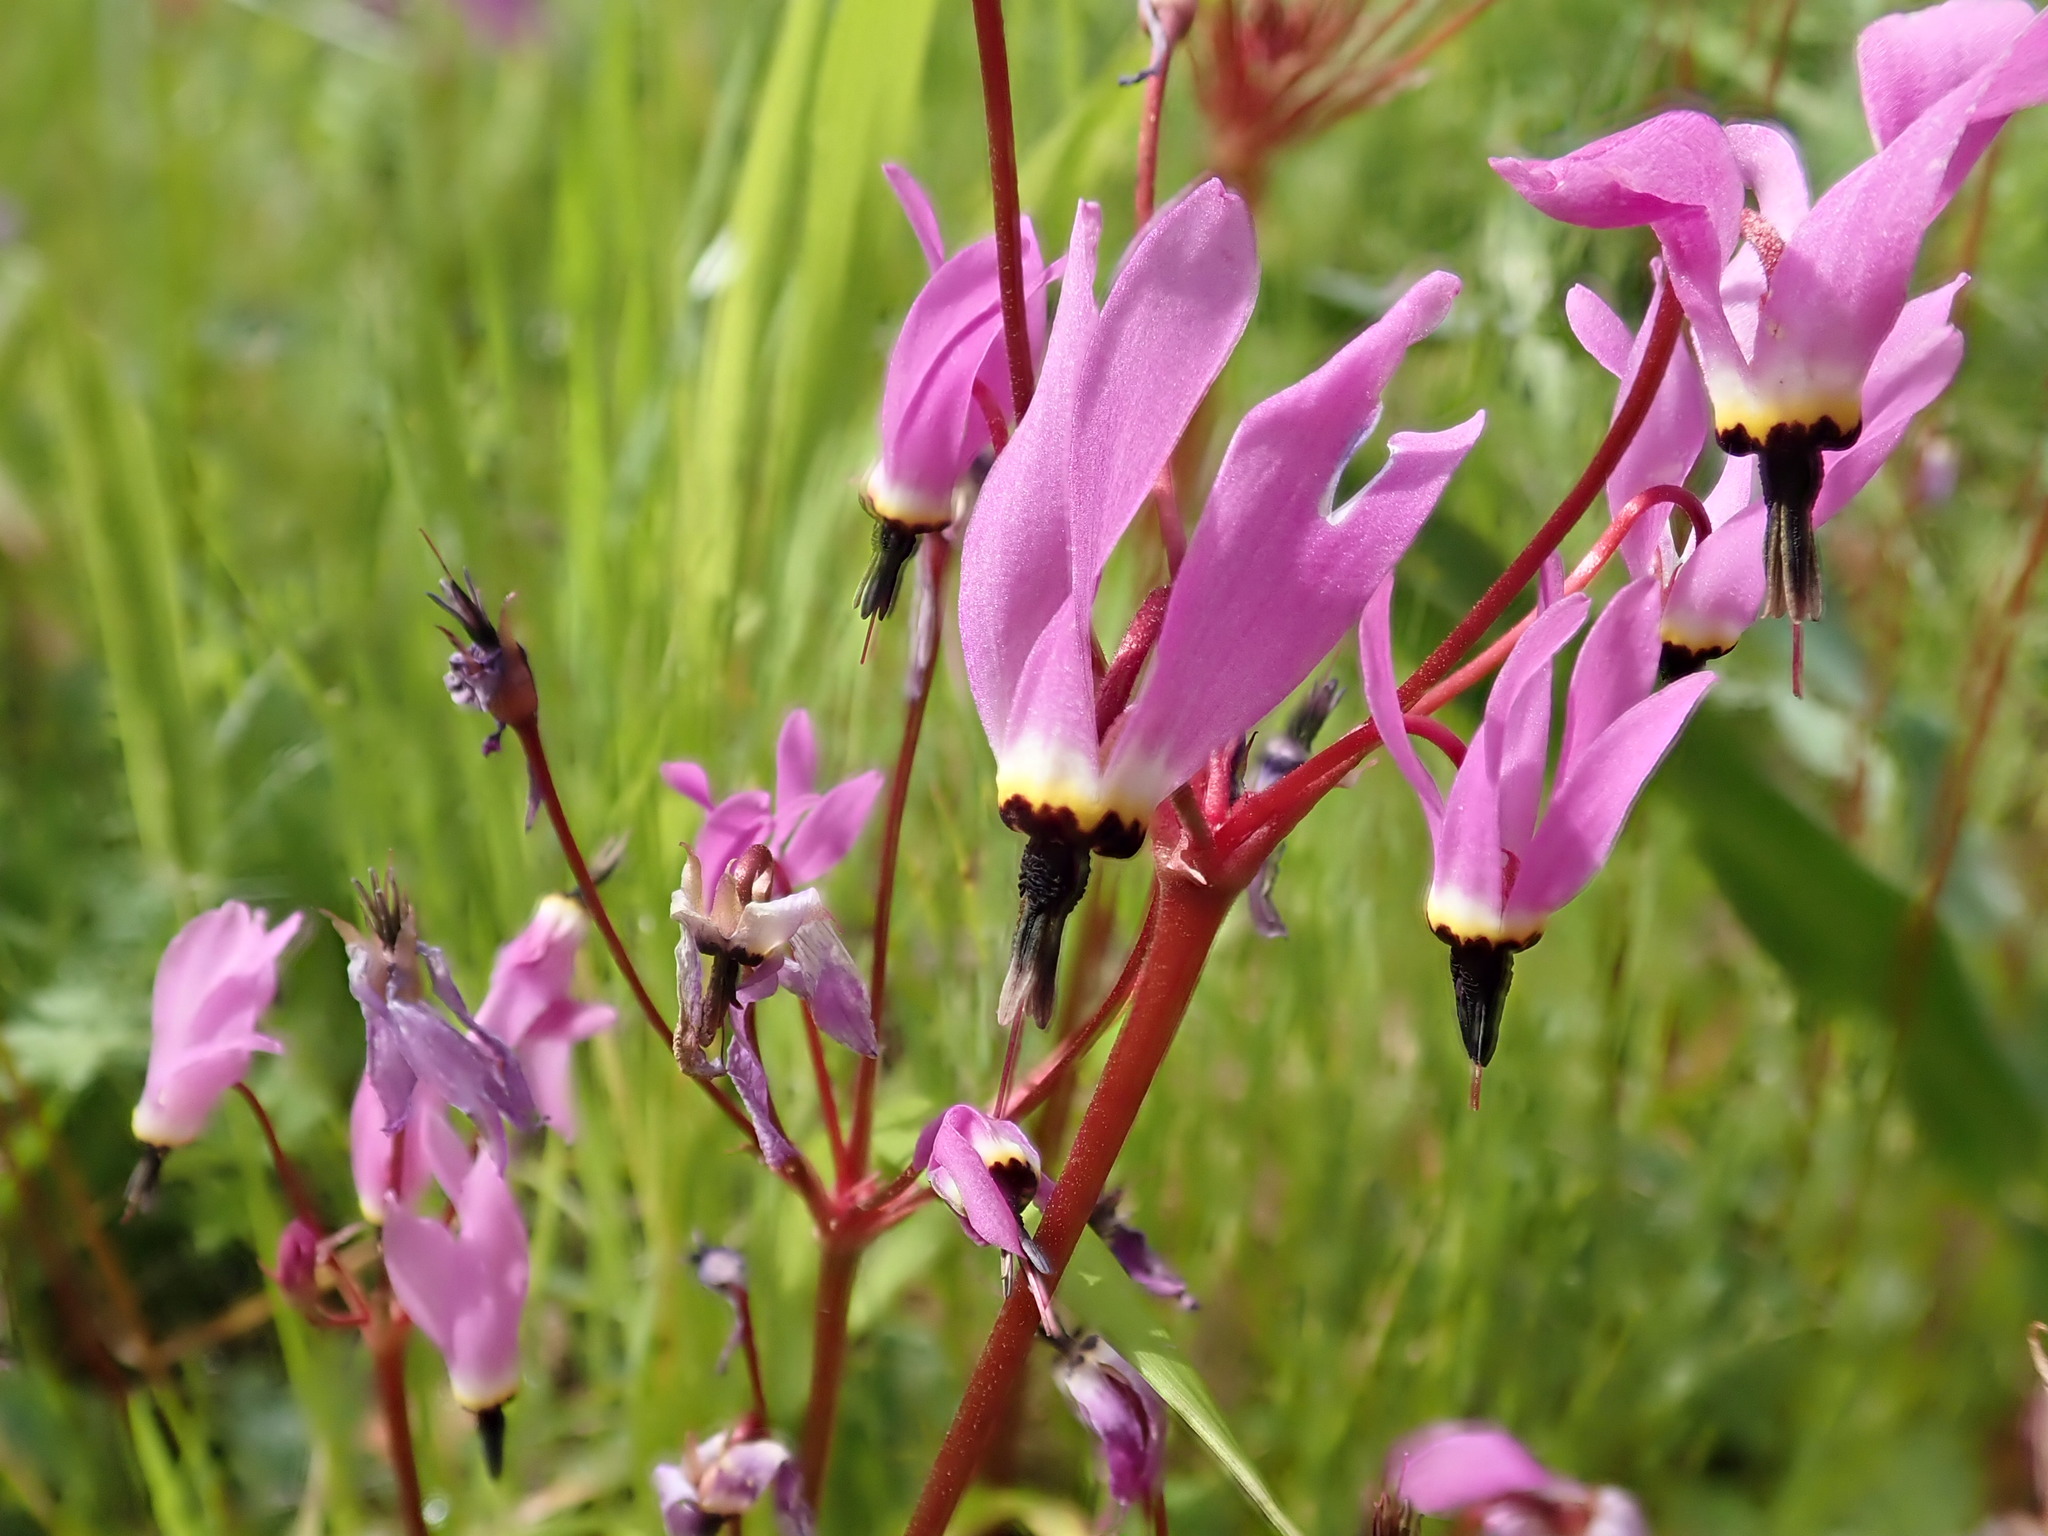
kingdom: Plantae
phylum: Tracheophyta
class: Magnoliopsida
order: Ericales
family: Primulaceae
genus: Dodecatheon
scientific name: Dodecatheon hendersonii
